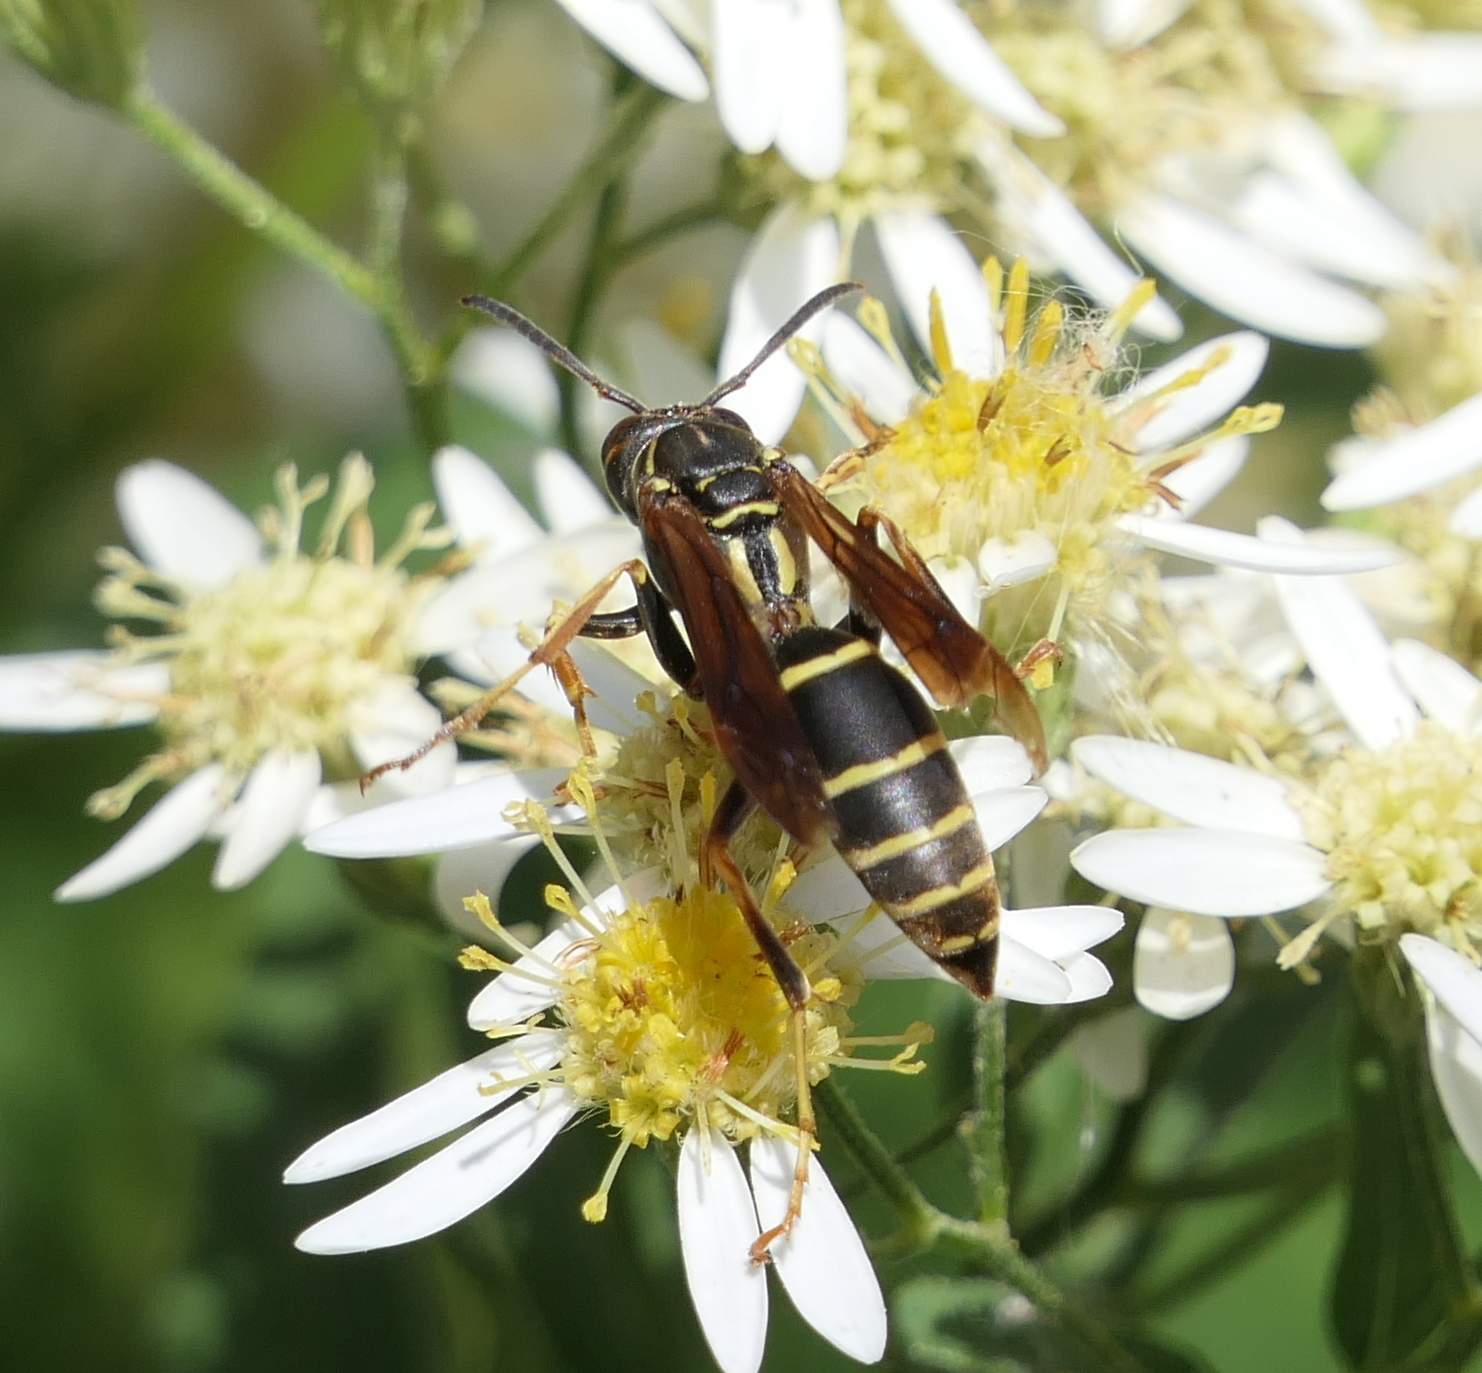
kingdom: Animalia
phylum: Arthropoda
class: Insecta
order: Hymenoptera
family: Eumenidae
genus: Polistes
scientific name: Polistes fuscatus
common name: Dark paper wasp
